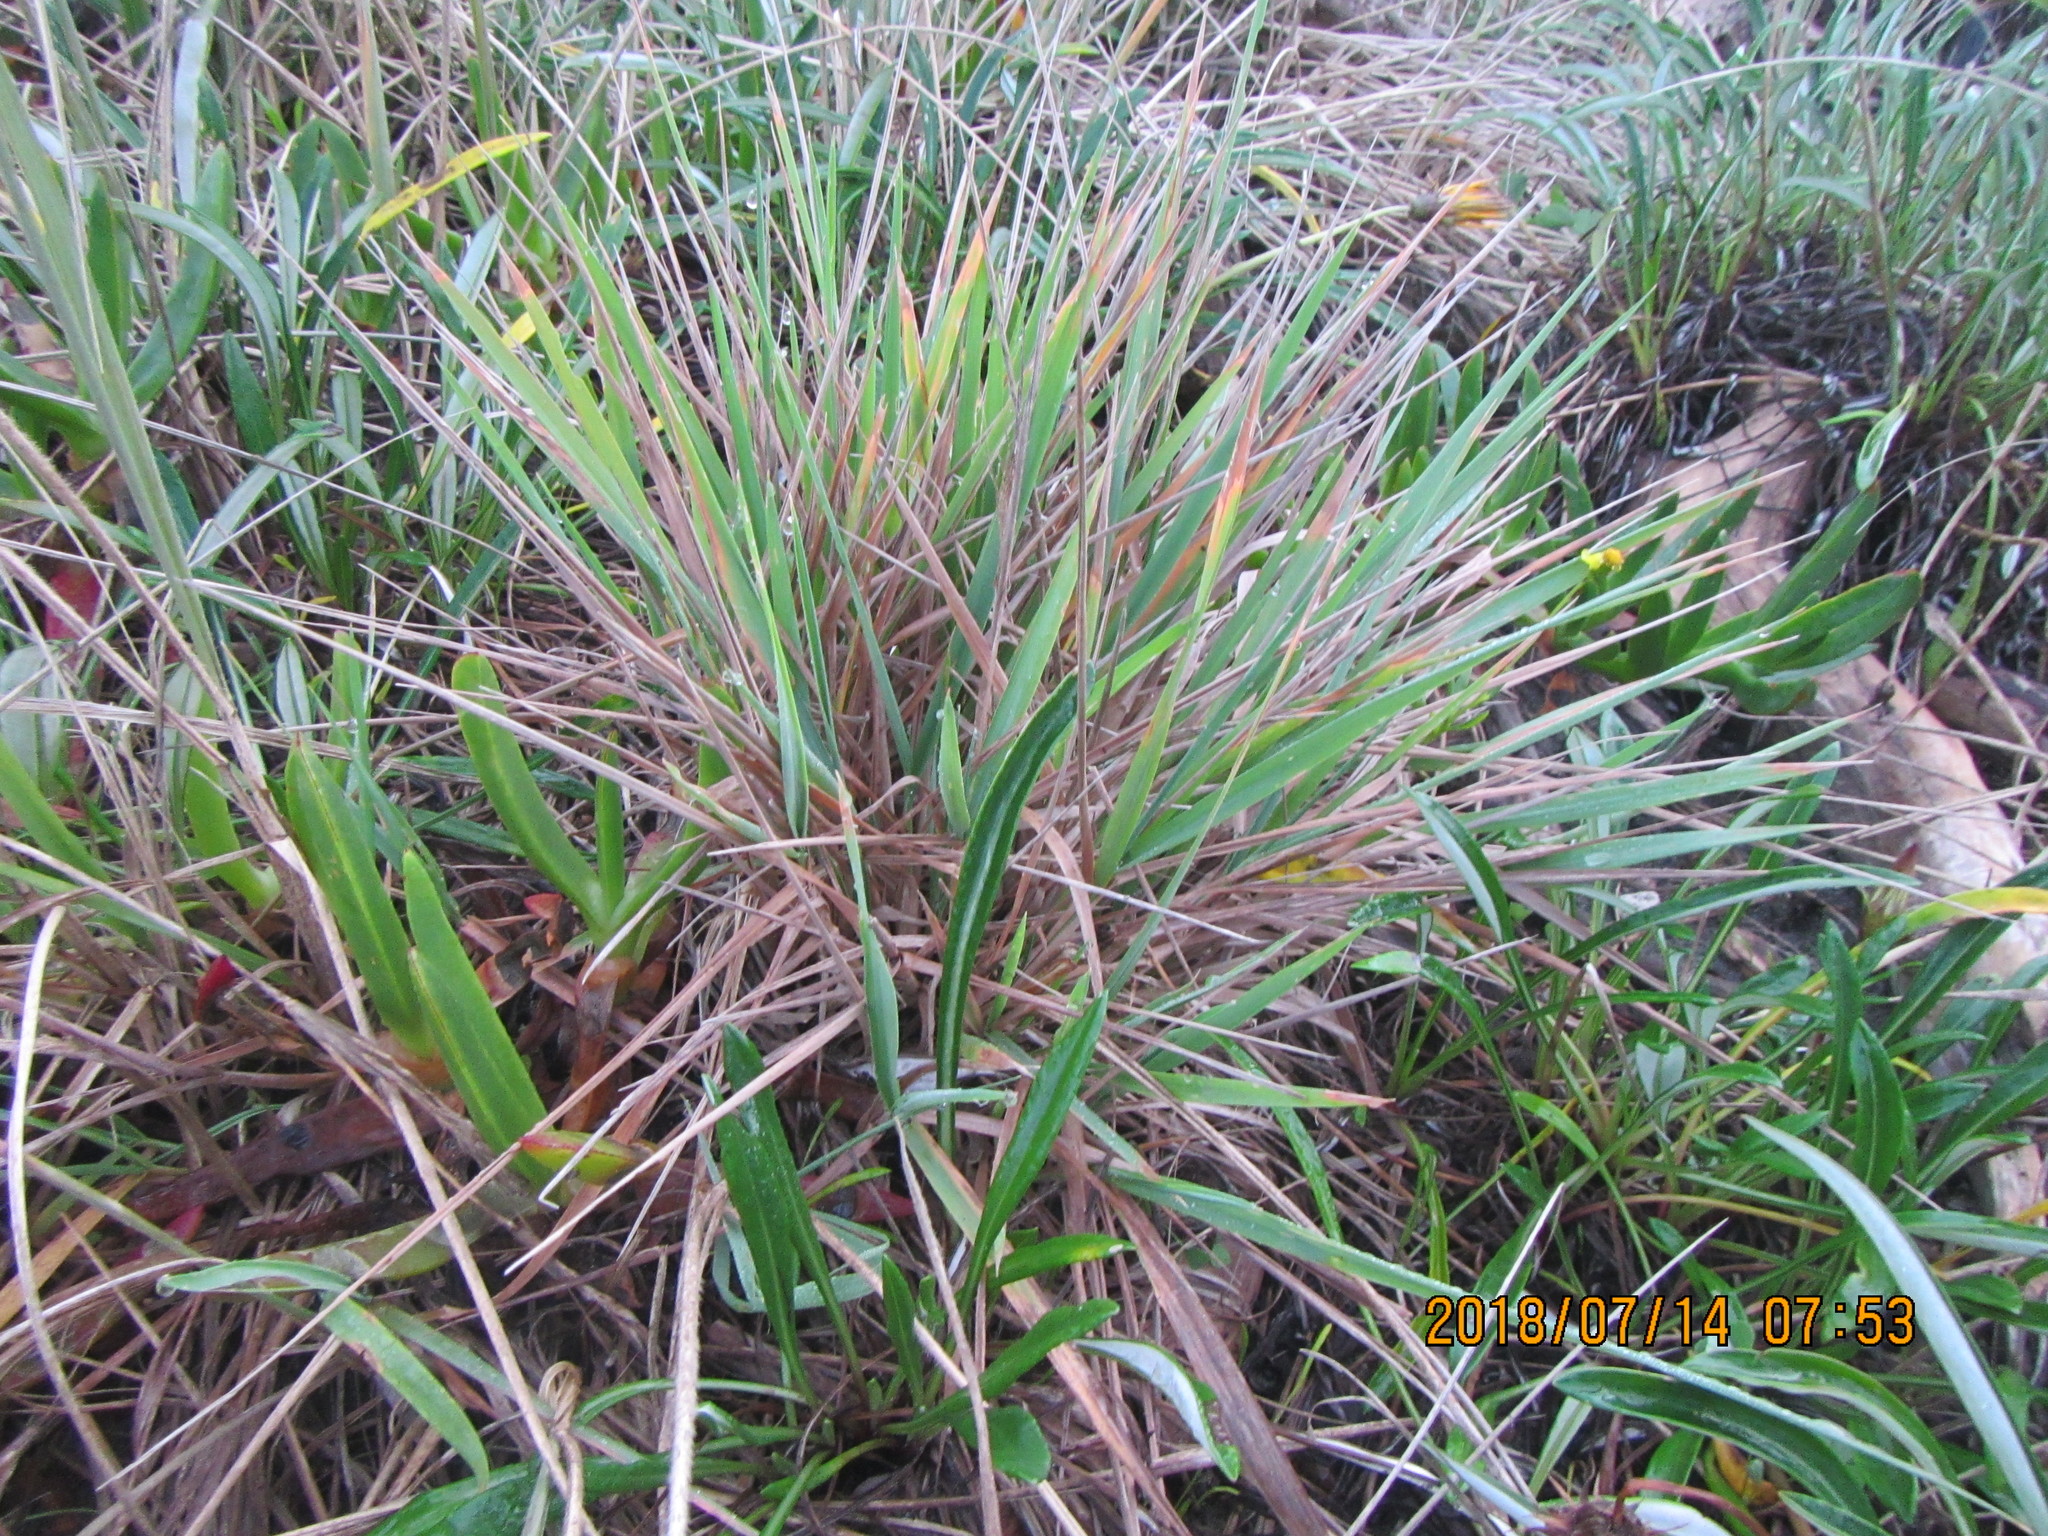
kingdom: Plantae
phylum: Tracheophyta
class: Liliopsida
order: Poales
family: Poaceae
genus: Lachnagrostis
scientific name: Lachnagrostis billardierei
